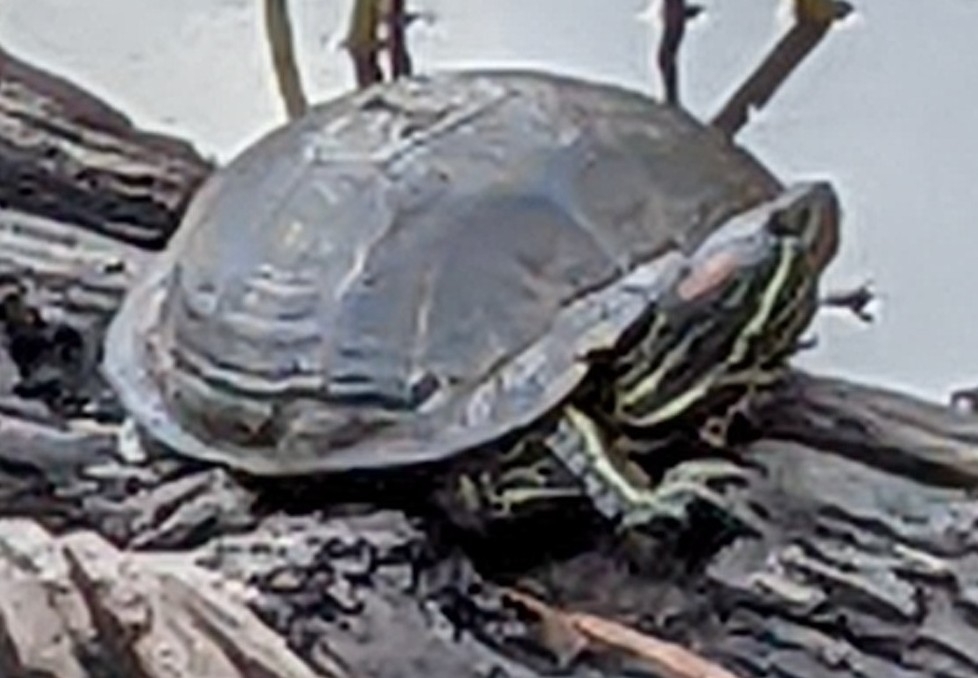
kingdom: Animalia
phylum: Chordata
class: Testudines
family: Emydidae
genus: Trachemys
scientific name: Trachemys scripta
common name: Slider
